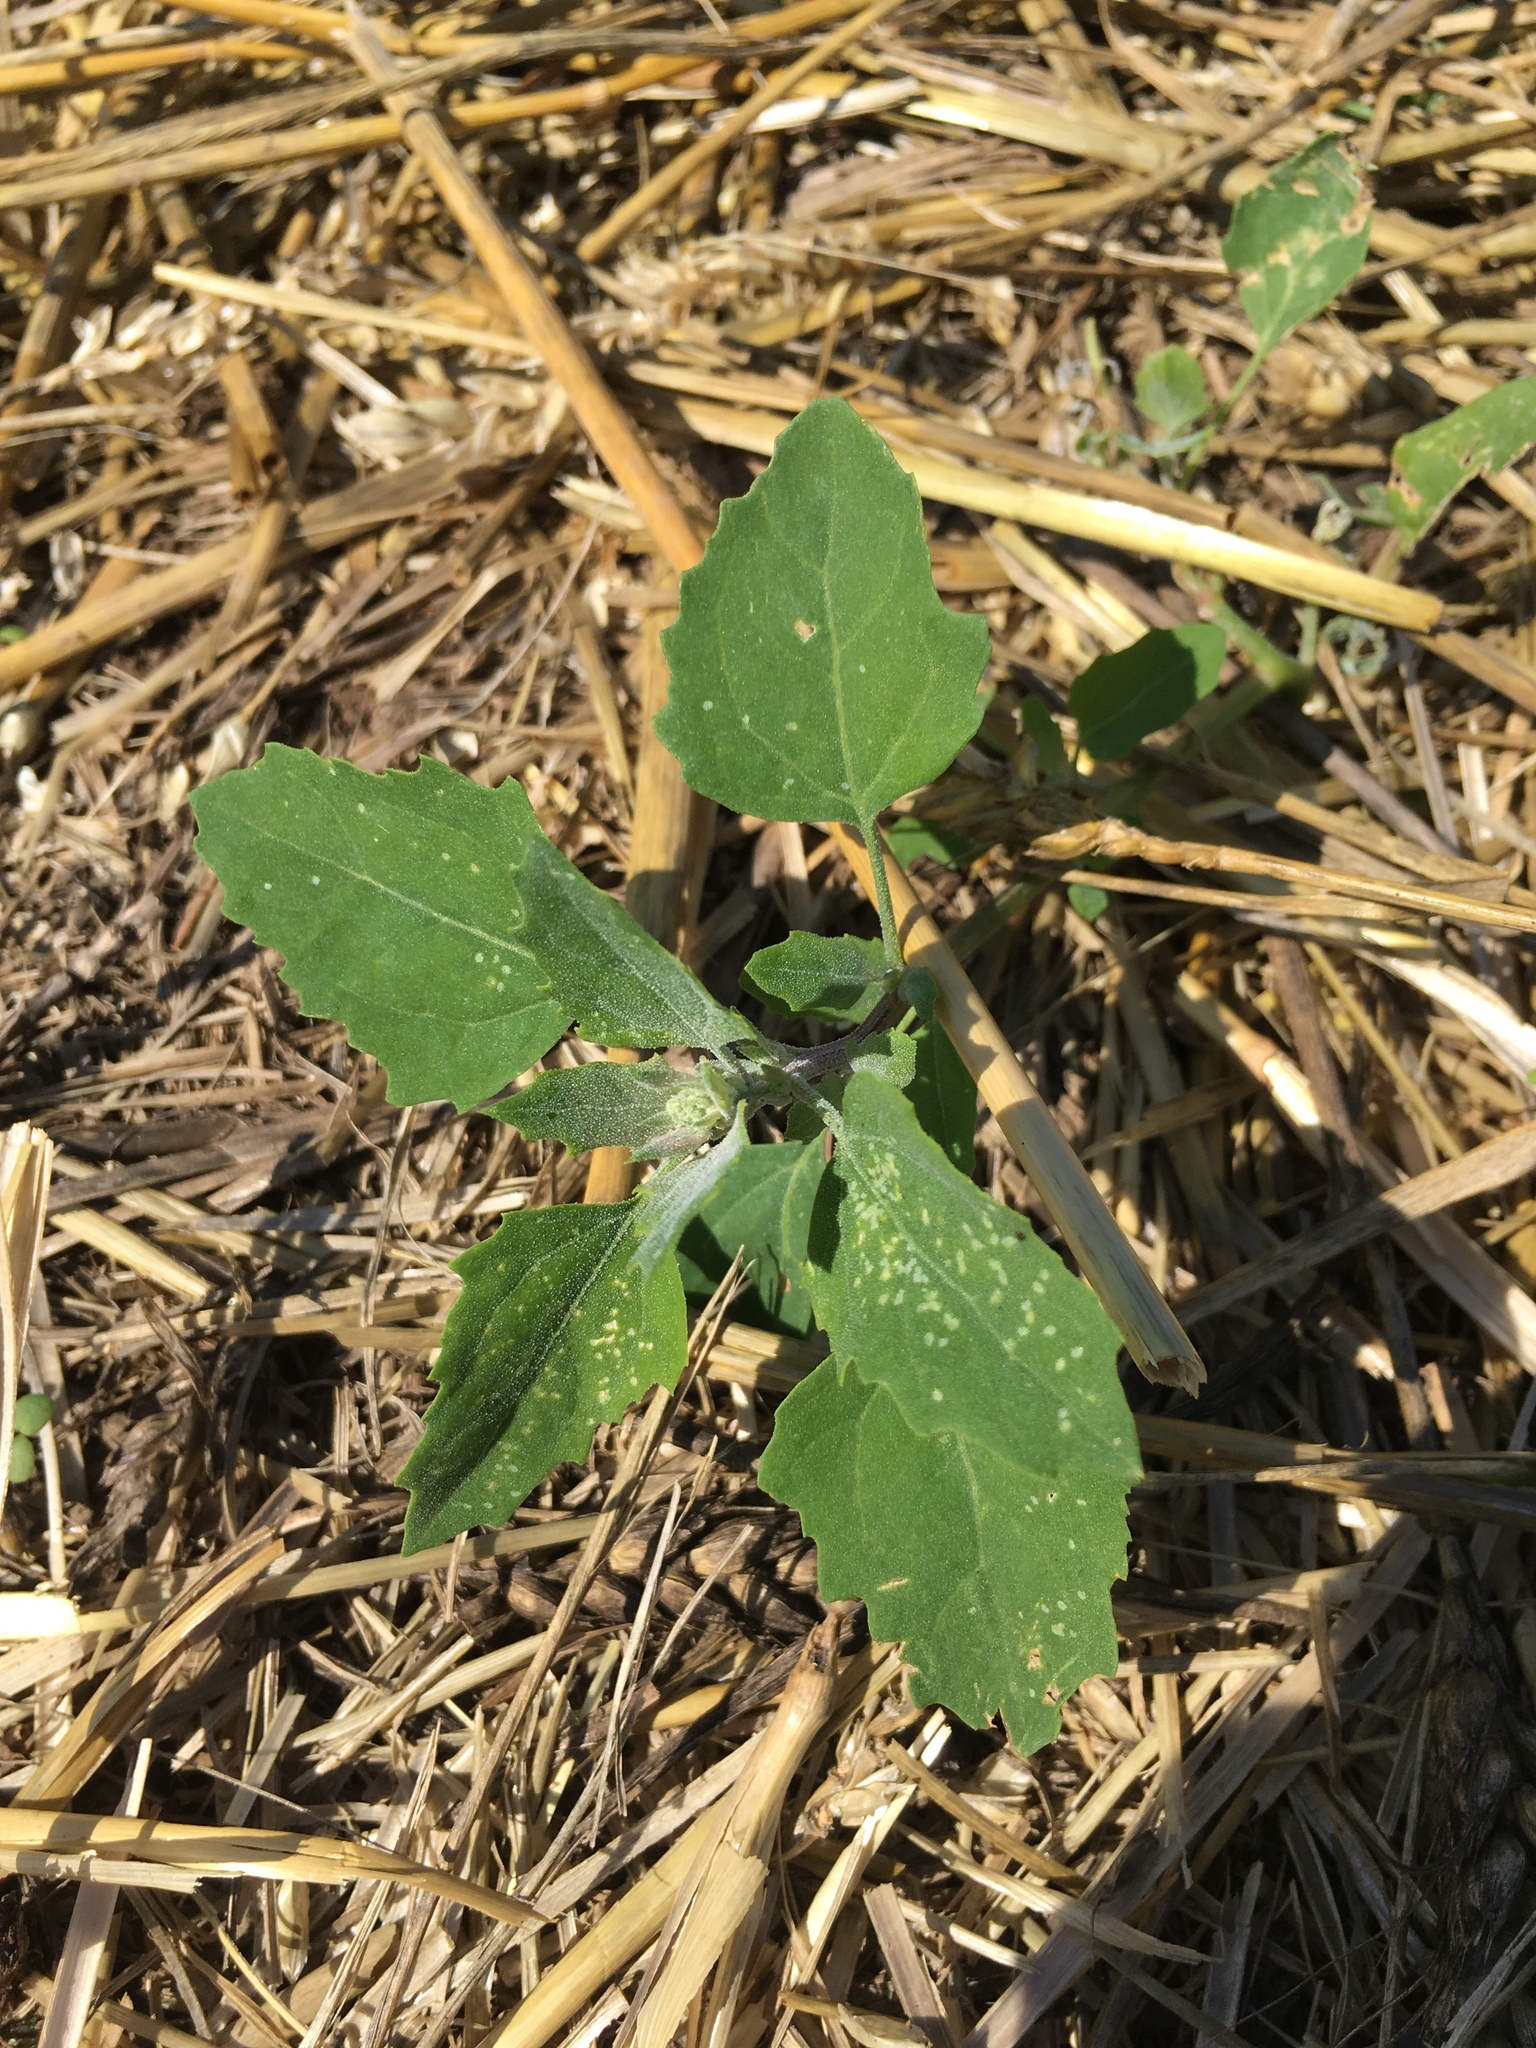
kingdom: Plantae
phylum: Tracheophyta
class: Magnoliopsida
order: Caryophyllales
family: Amaranthaceae
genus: Chenopodium
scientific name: Chenopodium album
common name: Fat-hen
